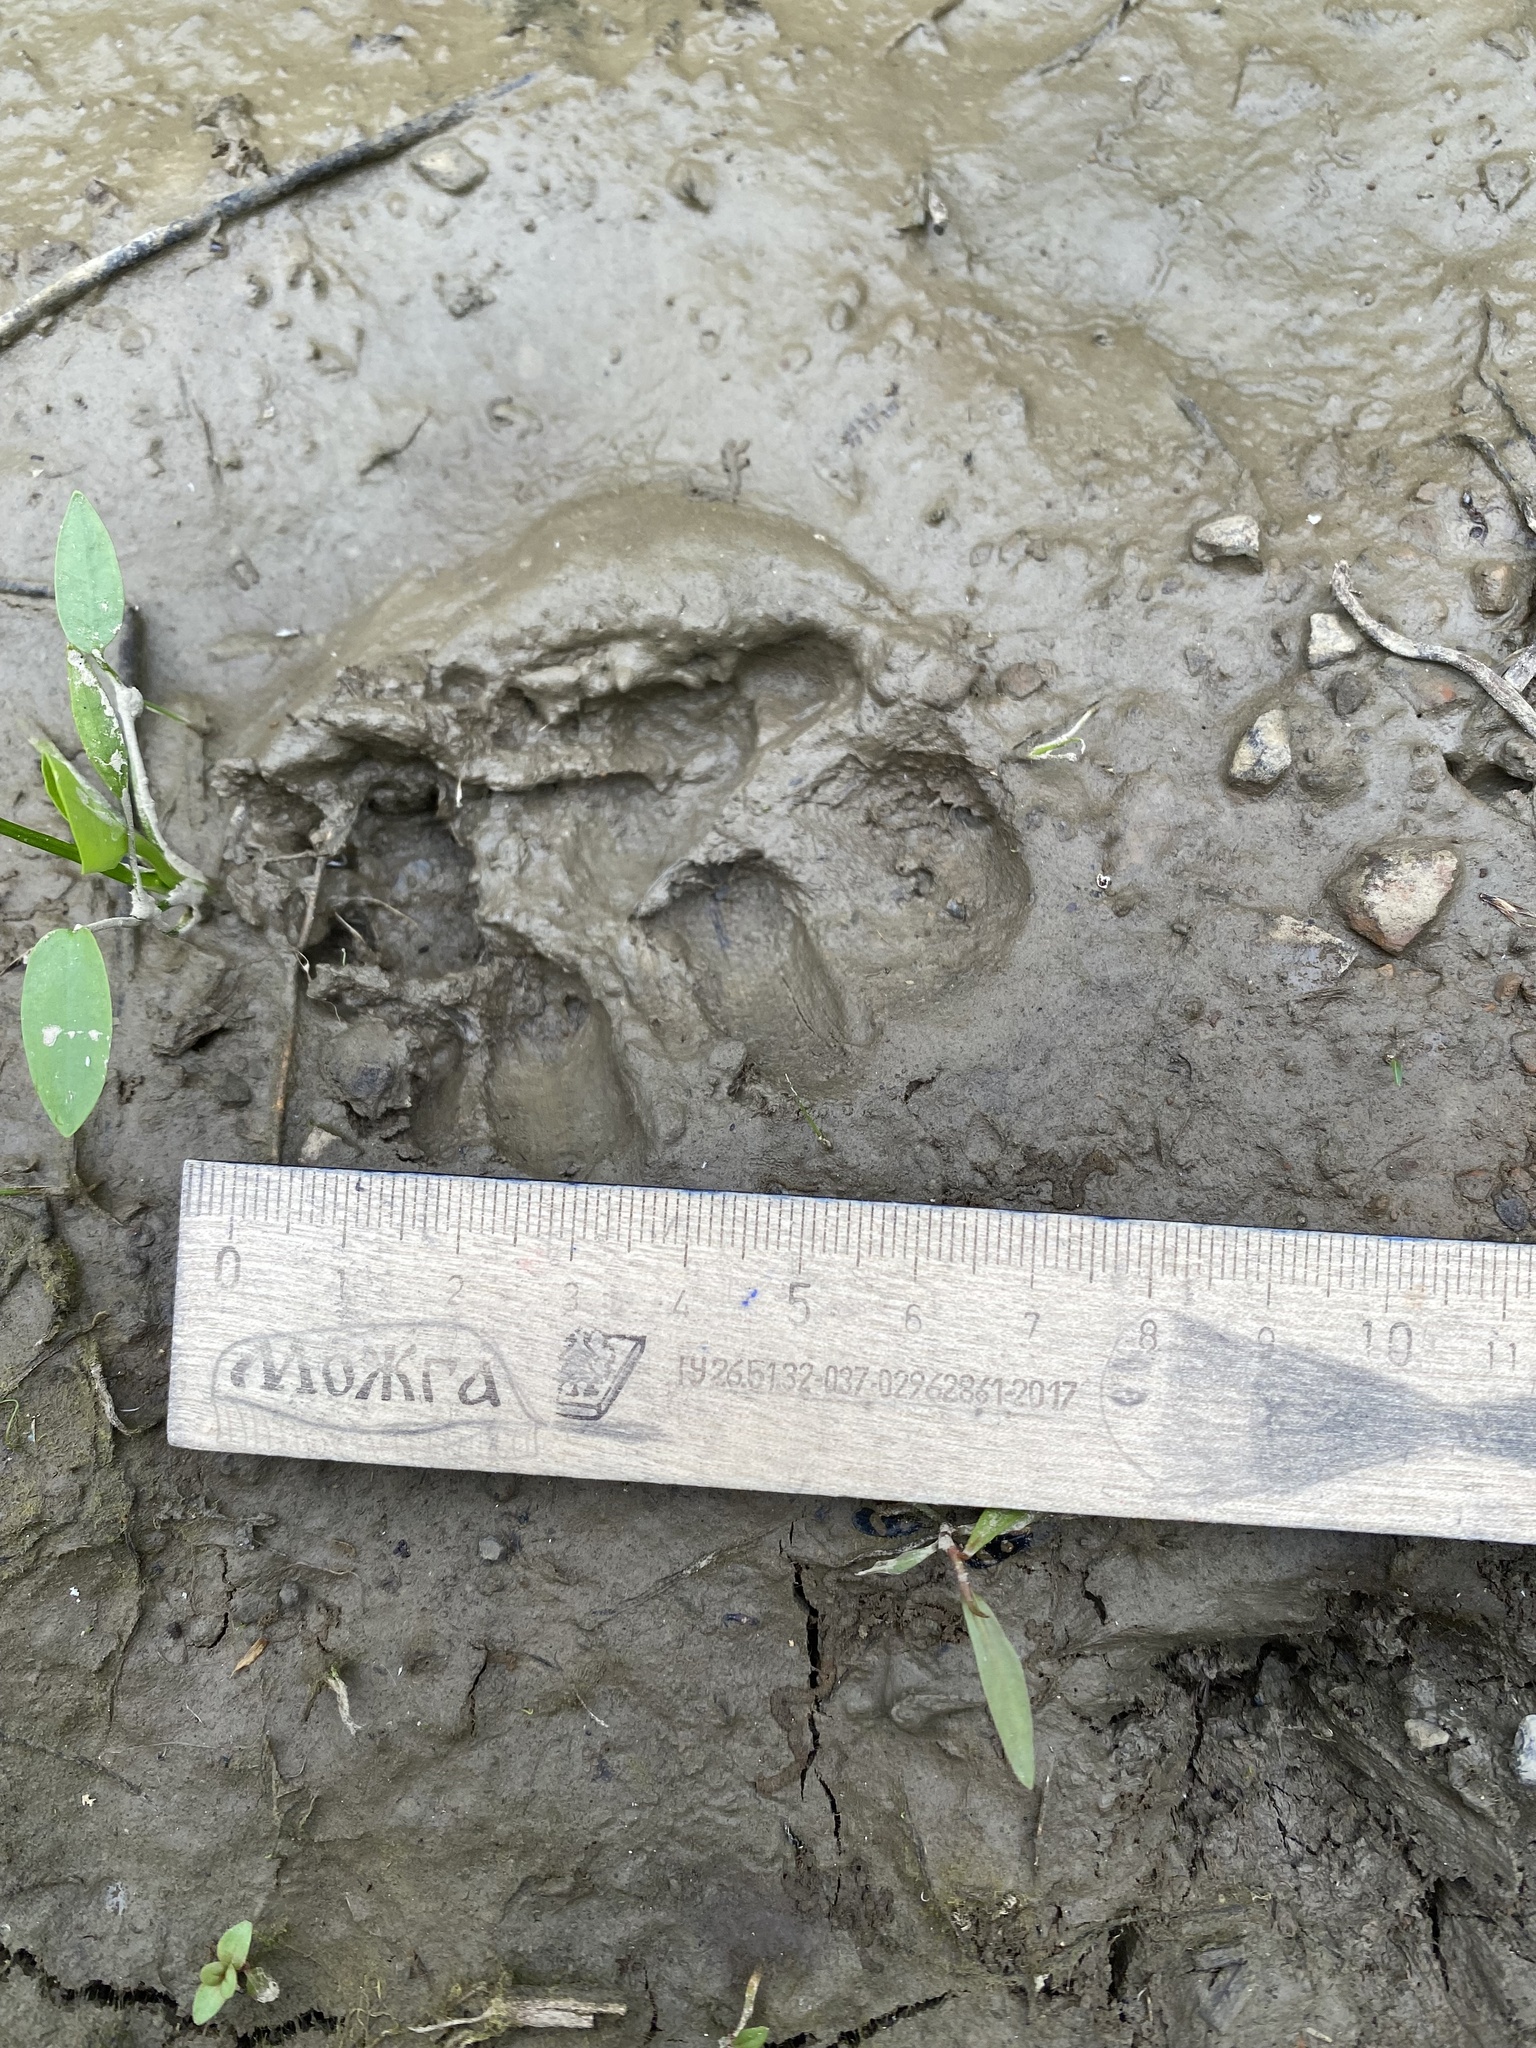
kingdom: Animalia
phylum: Chordata
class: Mammalia
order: Artiodactyla
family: Suidae
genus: Sus
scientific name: Sus scrofa
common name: Wild boar
